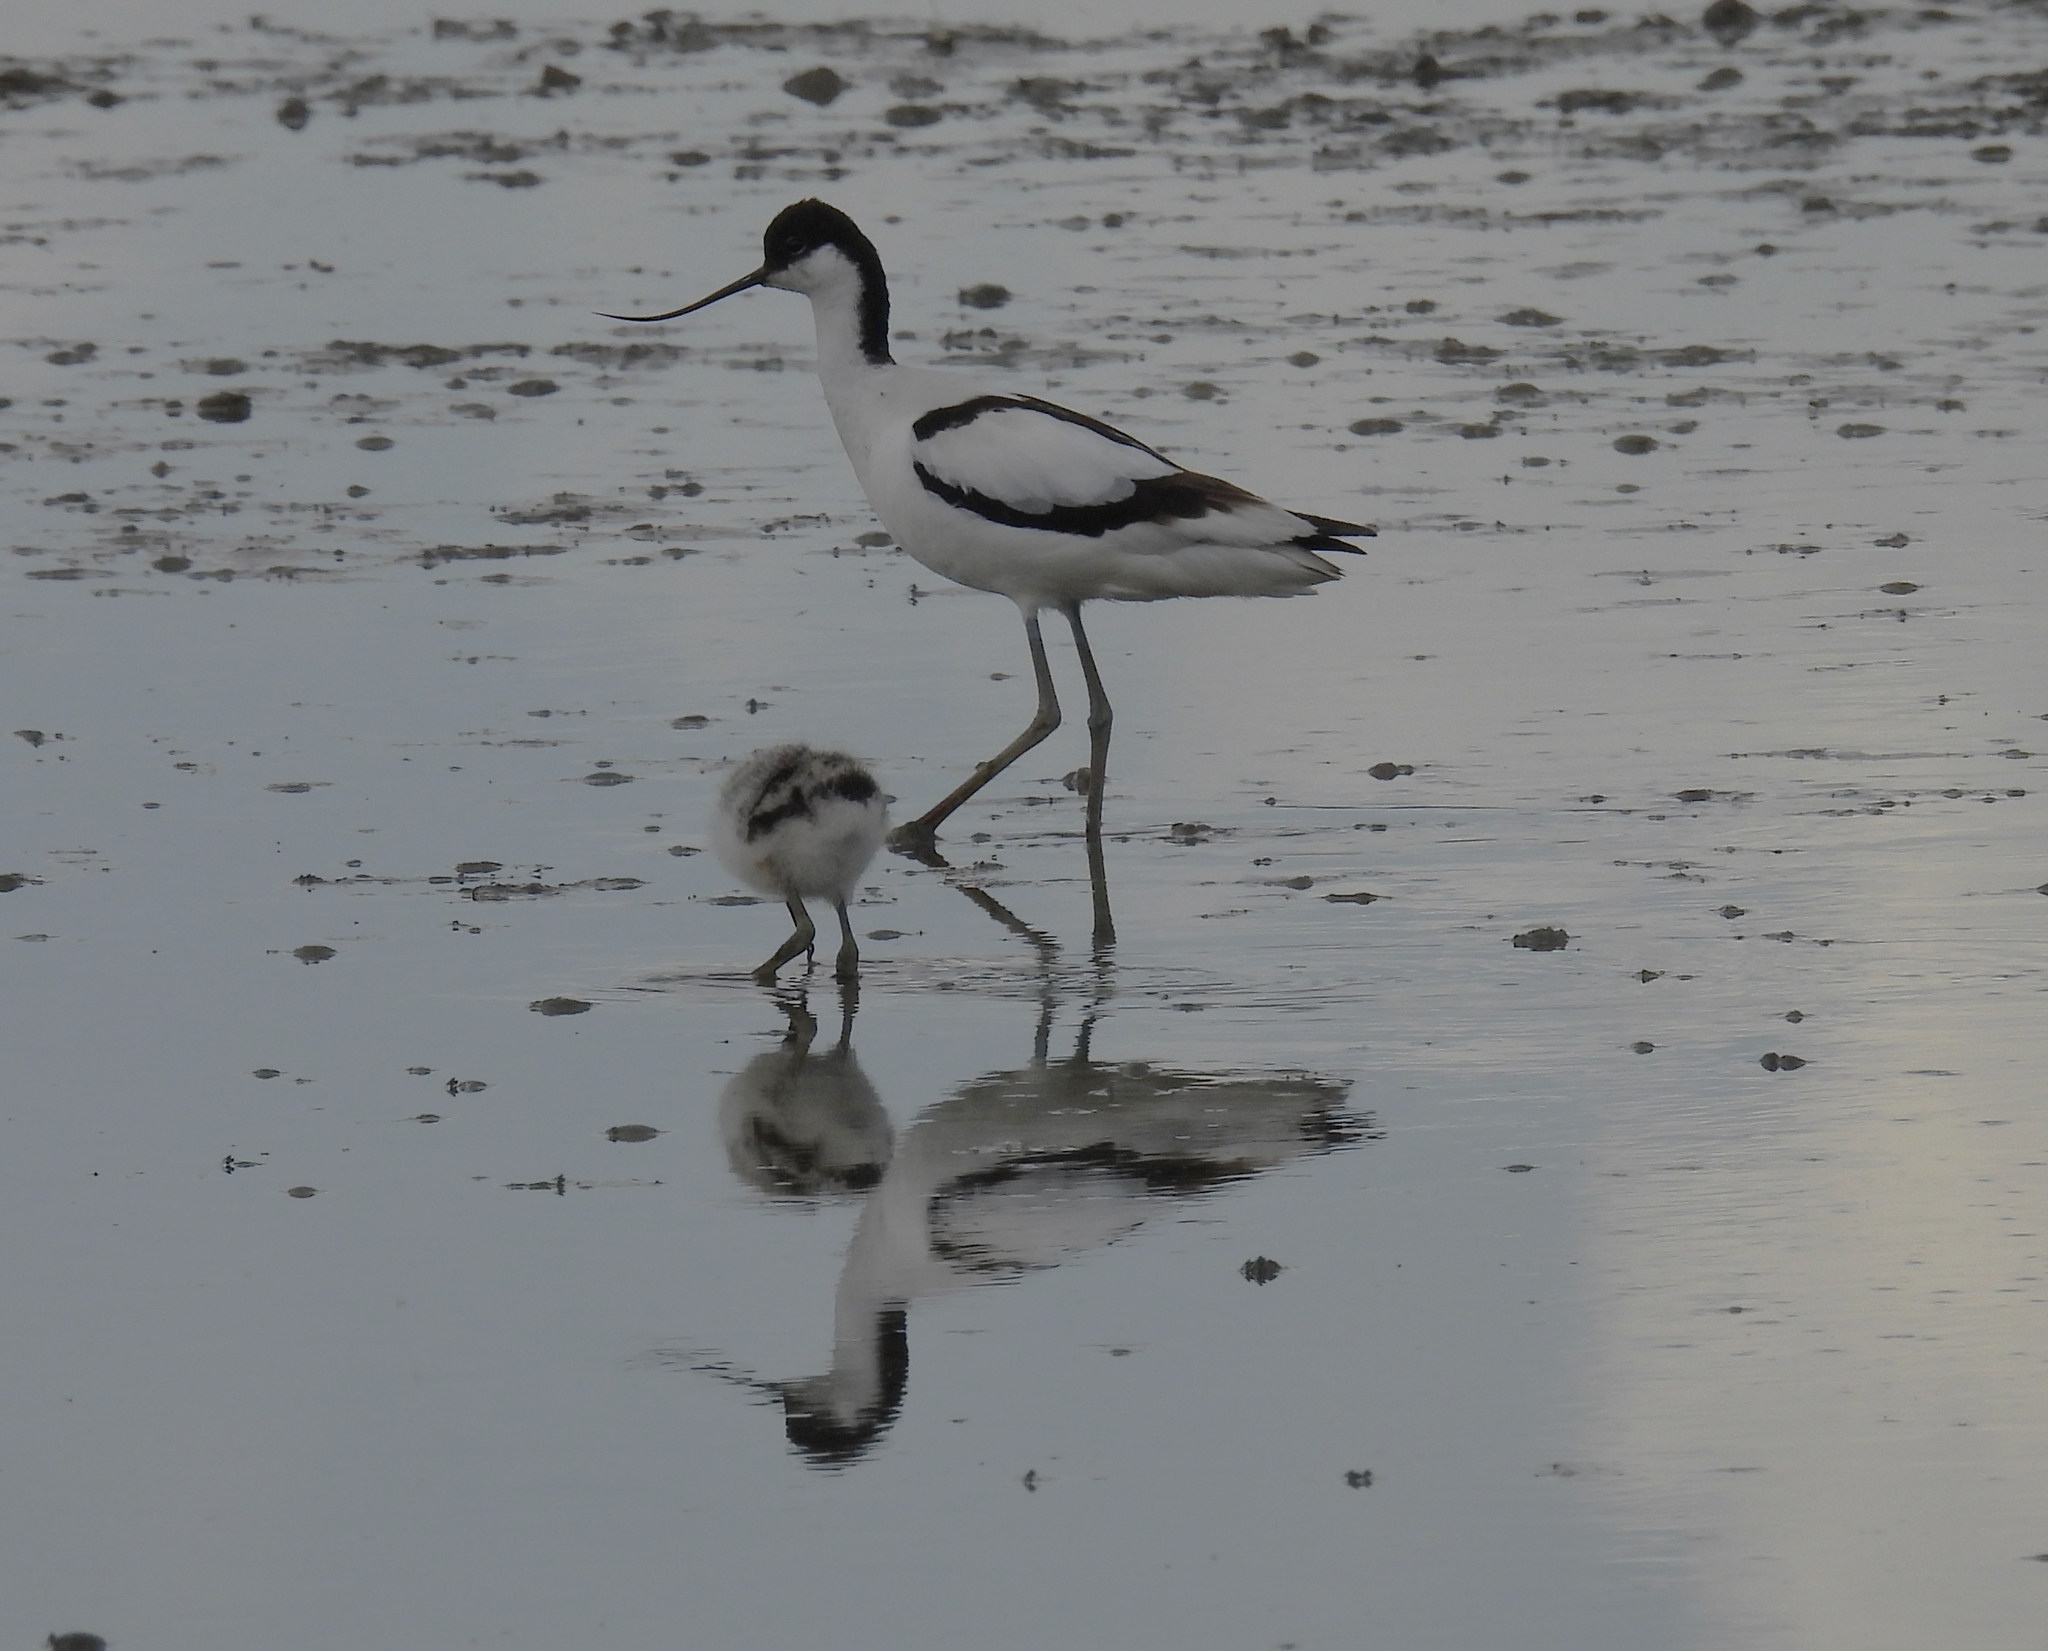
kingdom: Animalia
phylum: Chordata
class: Aves
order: Charadriiformes
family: Recurvirostridae
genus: Recurvirostra
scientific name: Recurvirostra avosetta
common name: Pied avocet
